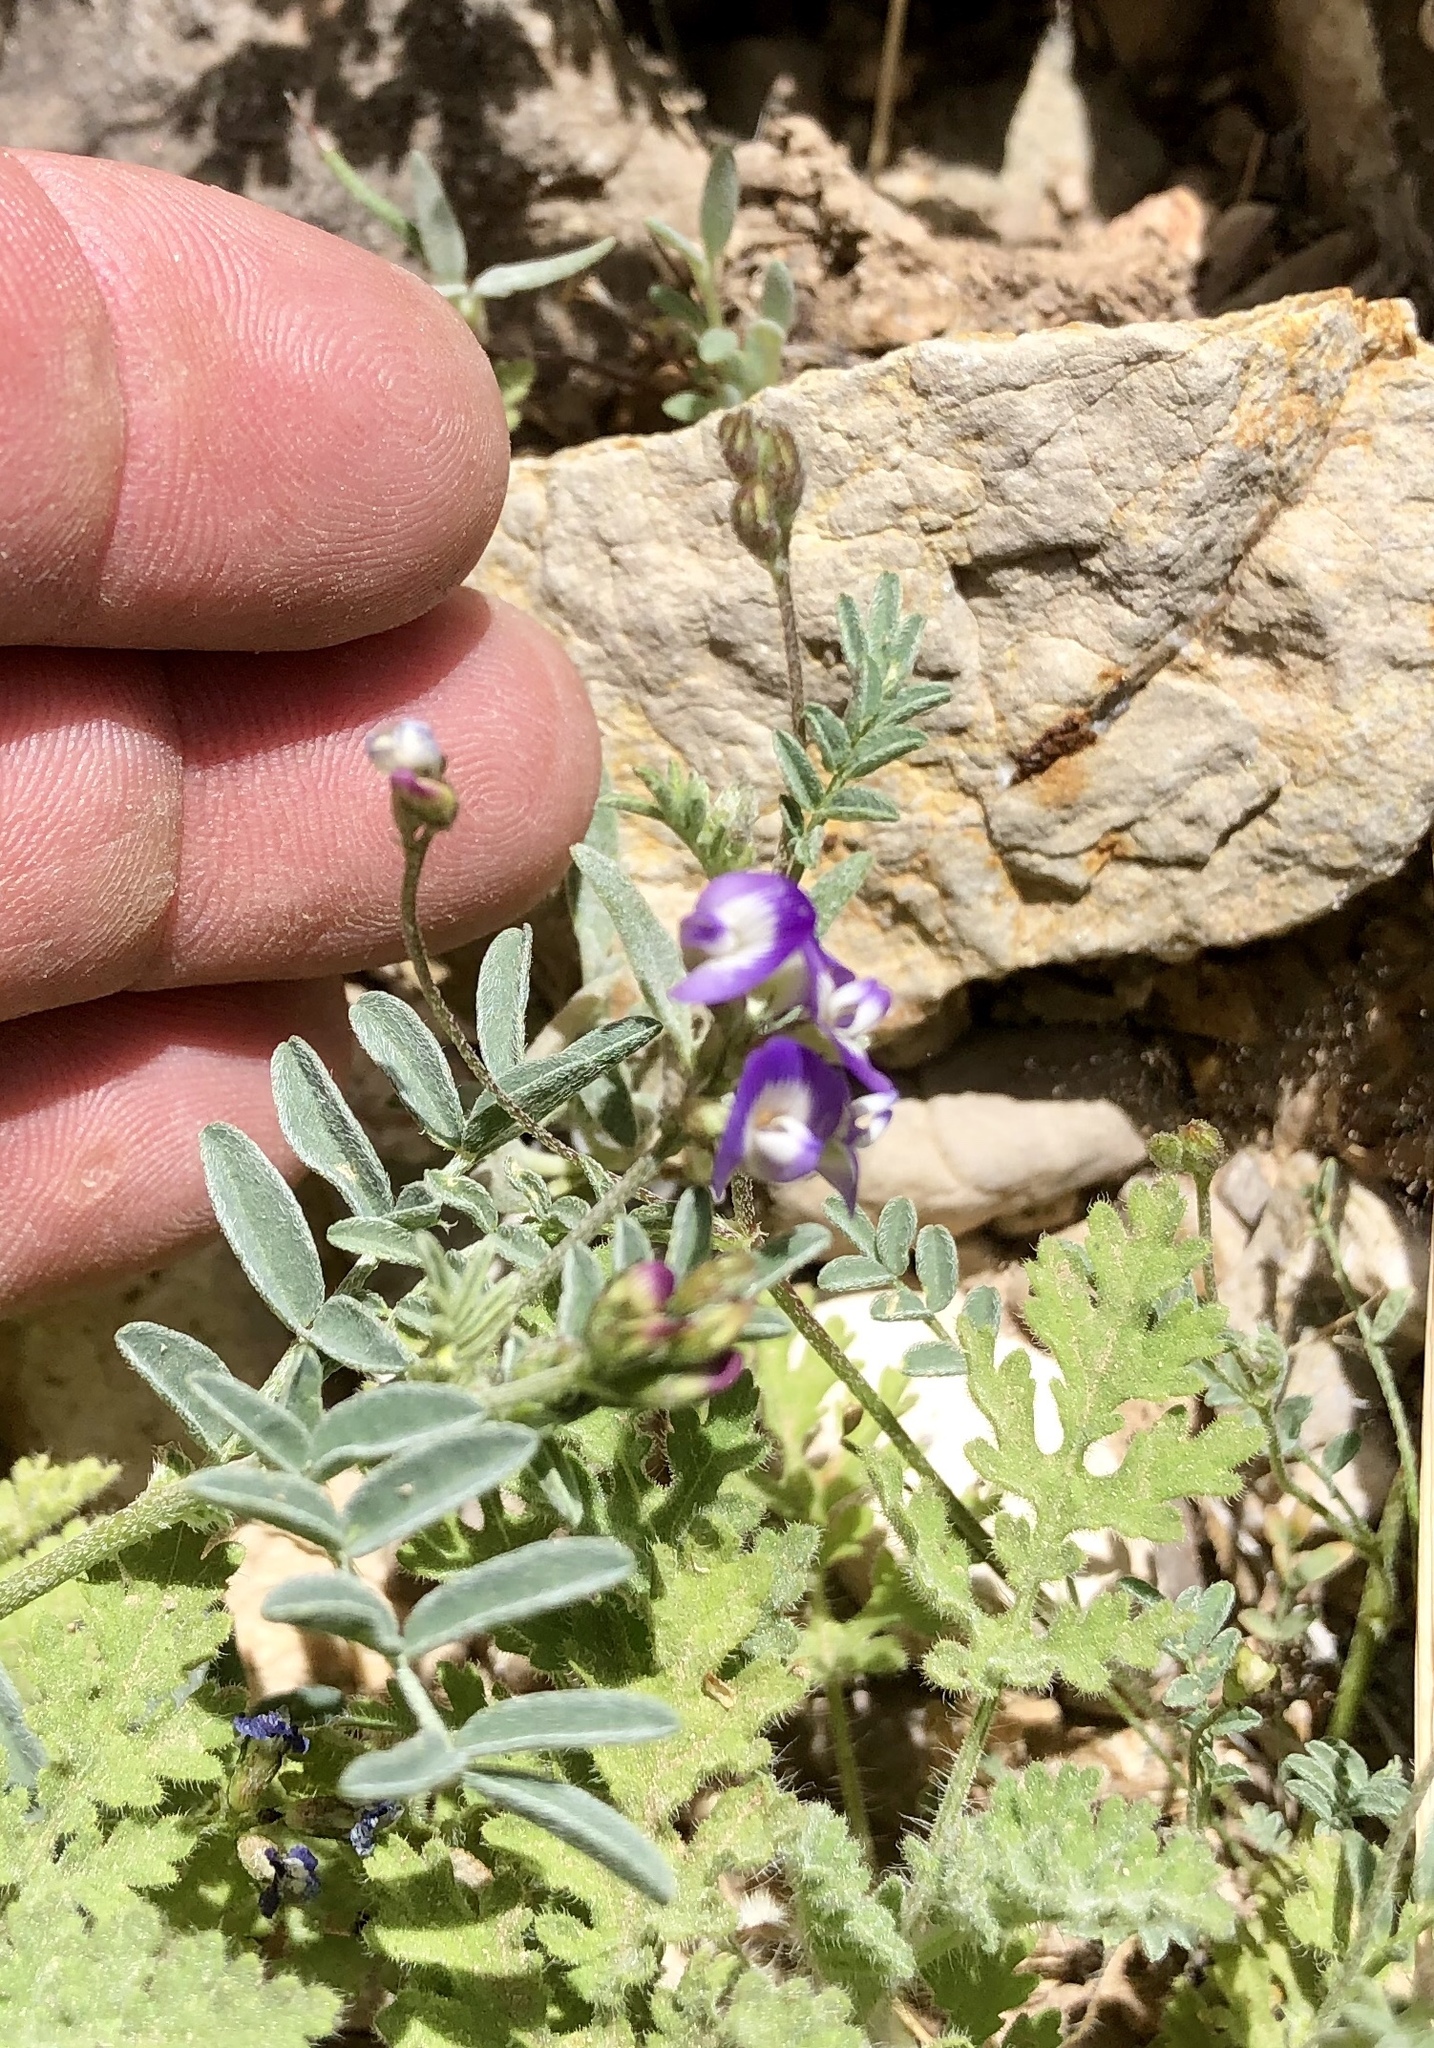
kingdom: Plantae
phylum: Tracheophyta
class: Magnoliopsida
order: Fabales
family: Fabaceae
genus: Astragalus
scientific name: Astragalus nuttallianus
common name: Smallflowered milkvetch
